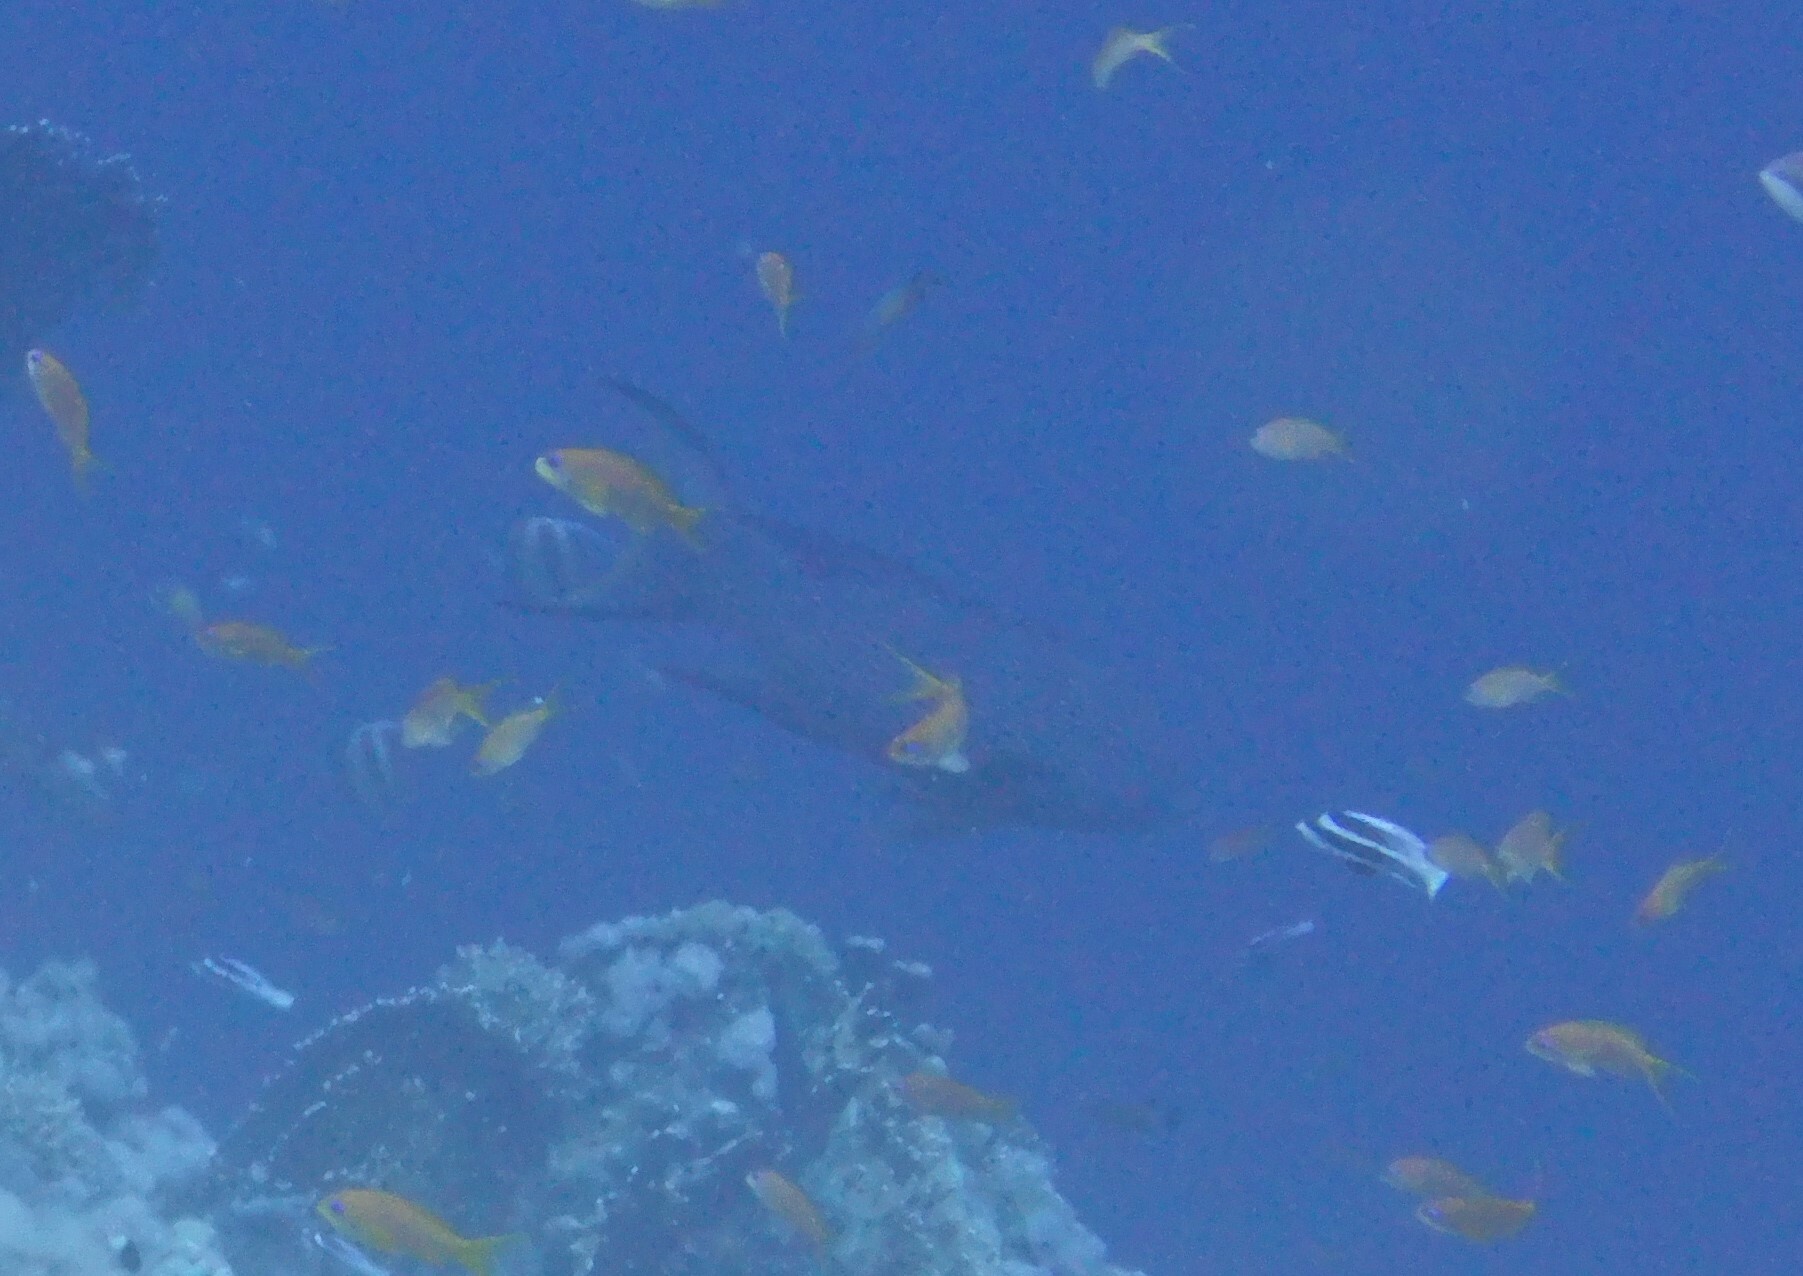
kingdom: Animalia
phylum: Chordata
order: Perciformes
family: Serranidae
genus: Variola
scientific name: Variola louti
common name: Yellow-edged lyretail
